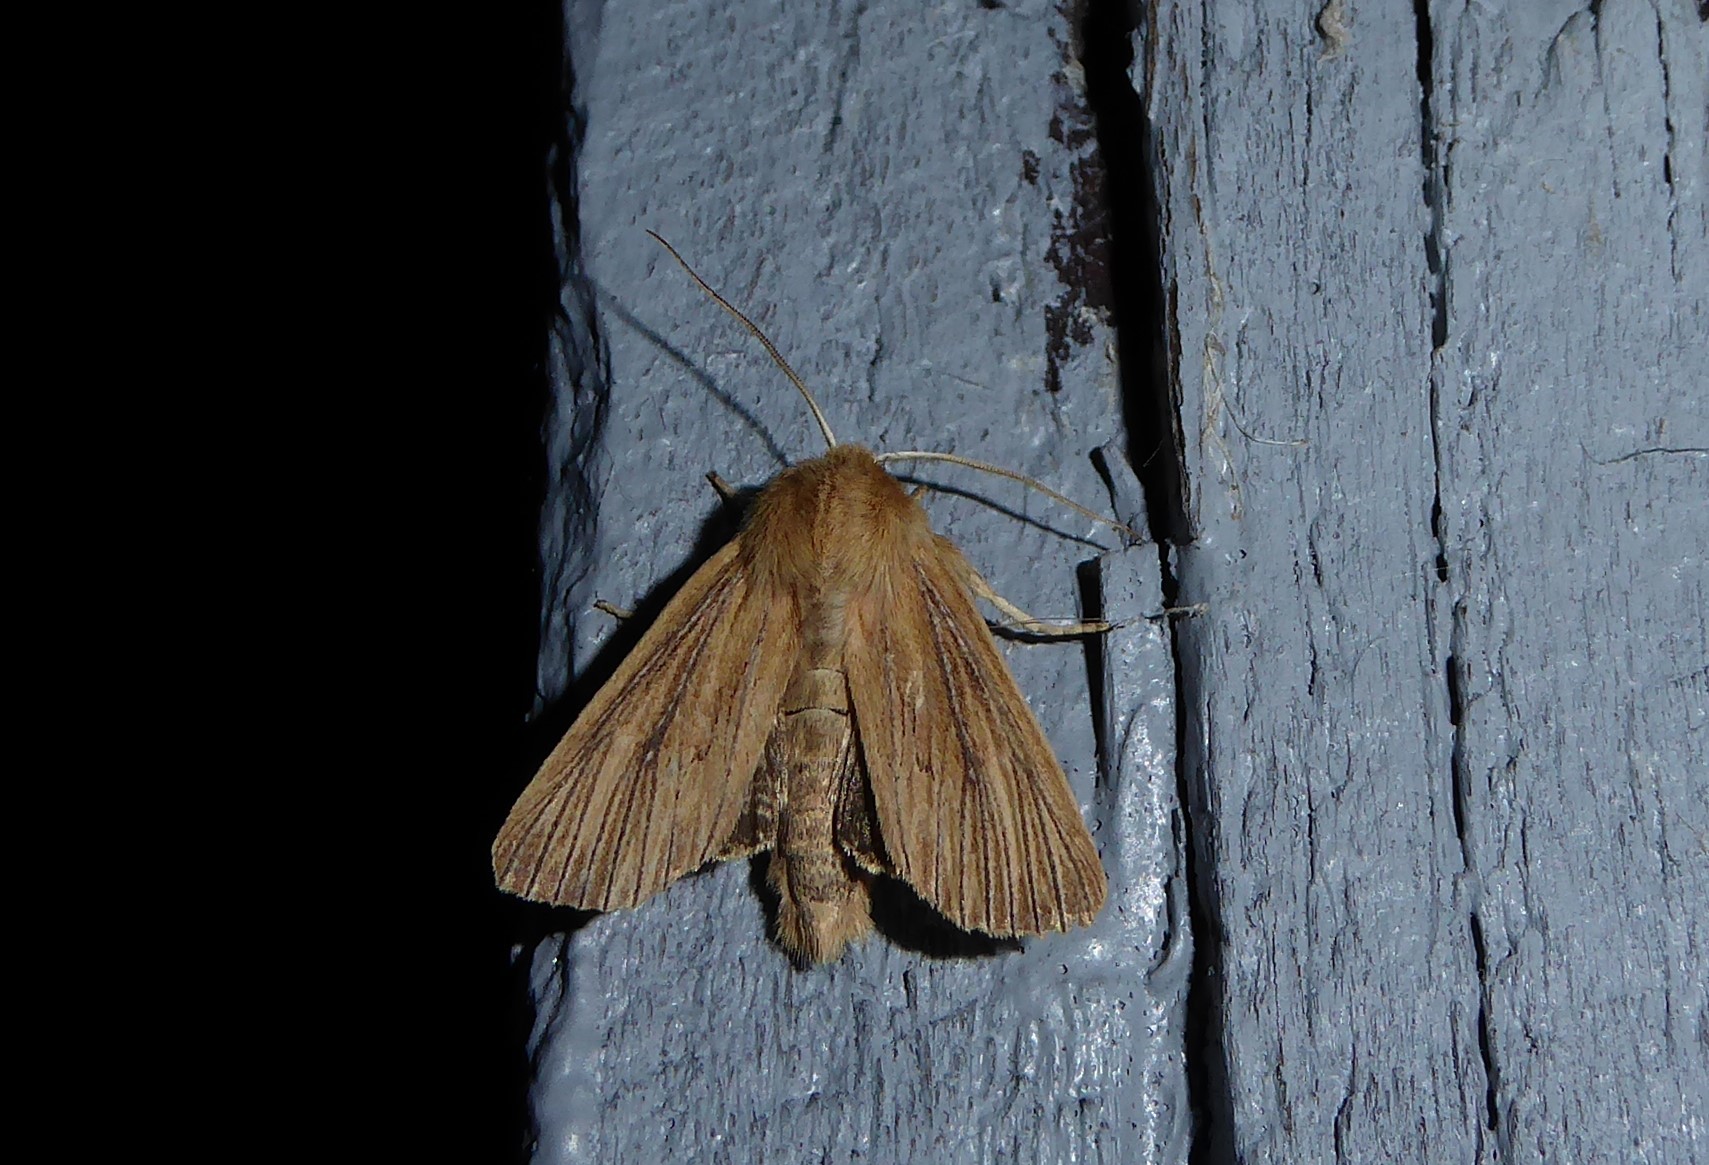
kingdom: Animalia
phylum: Arthropoda
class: Insecta
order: Lepidoptera
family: Noctuidae
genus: Ichneutica
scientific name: Ichneutica arotis
